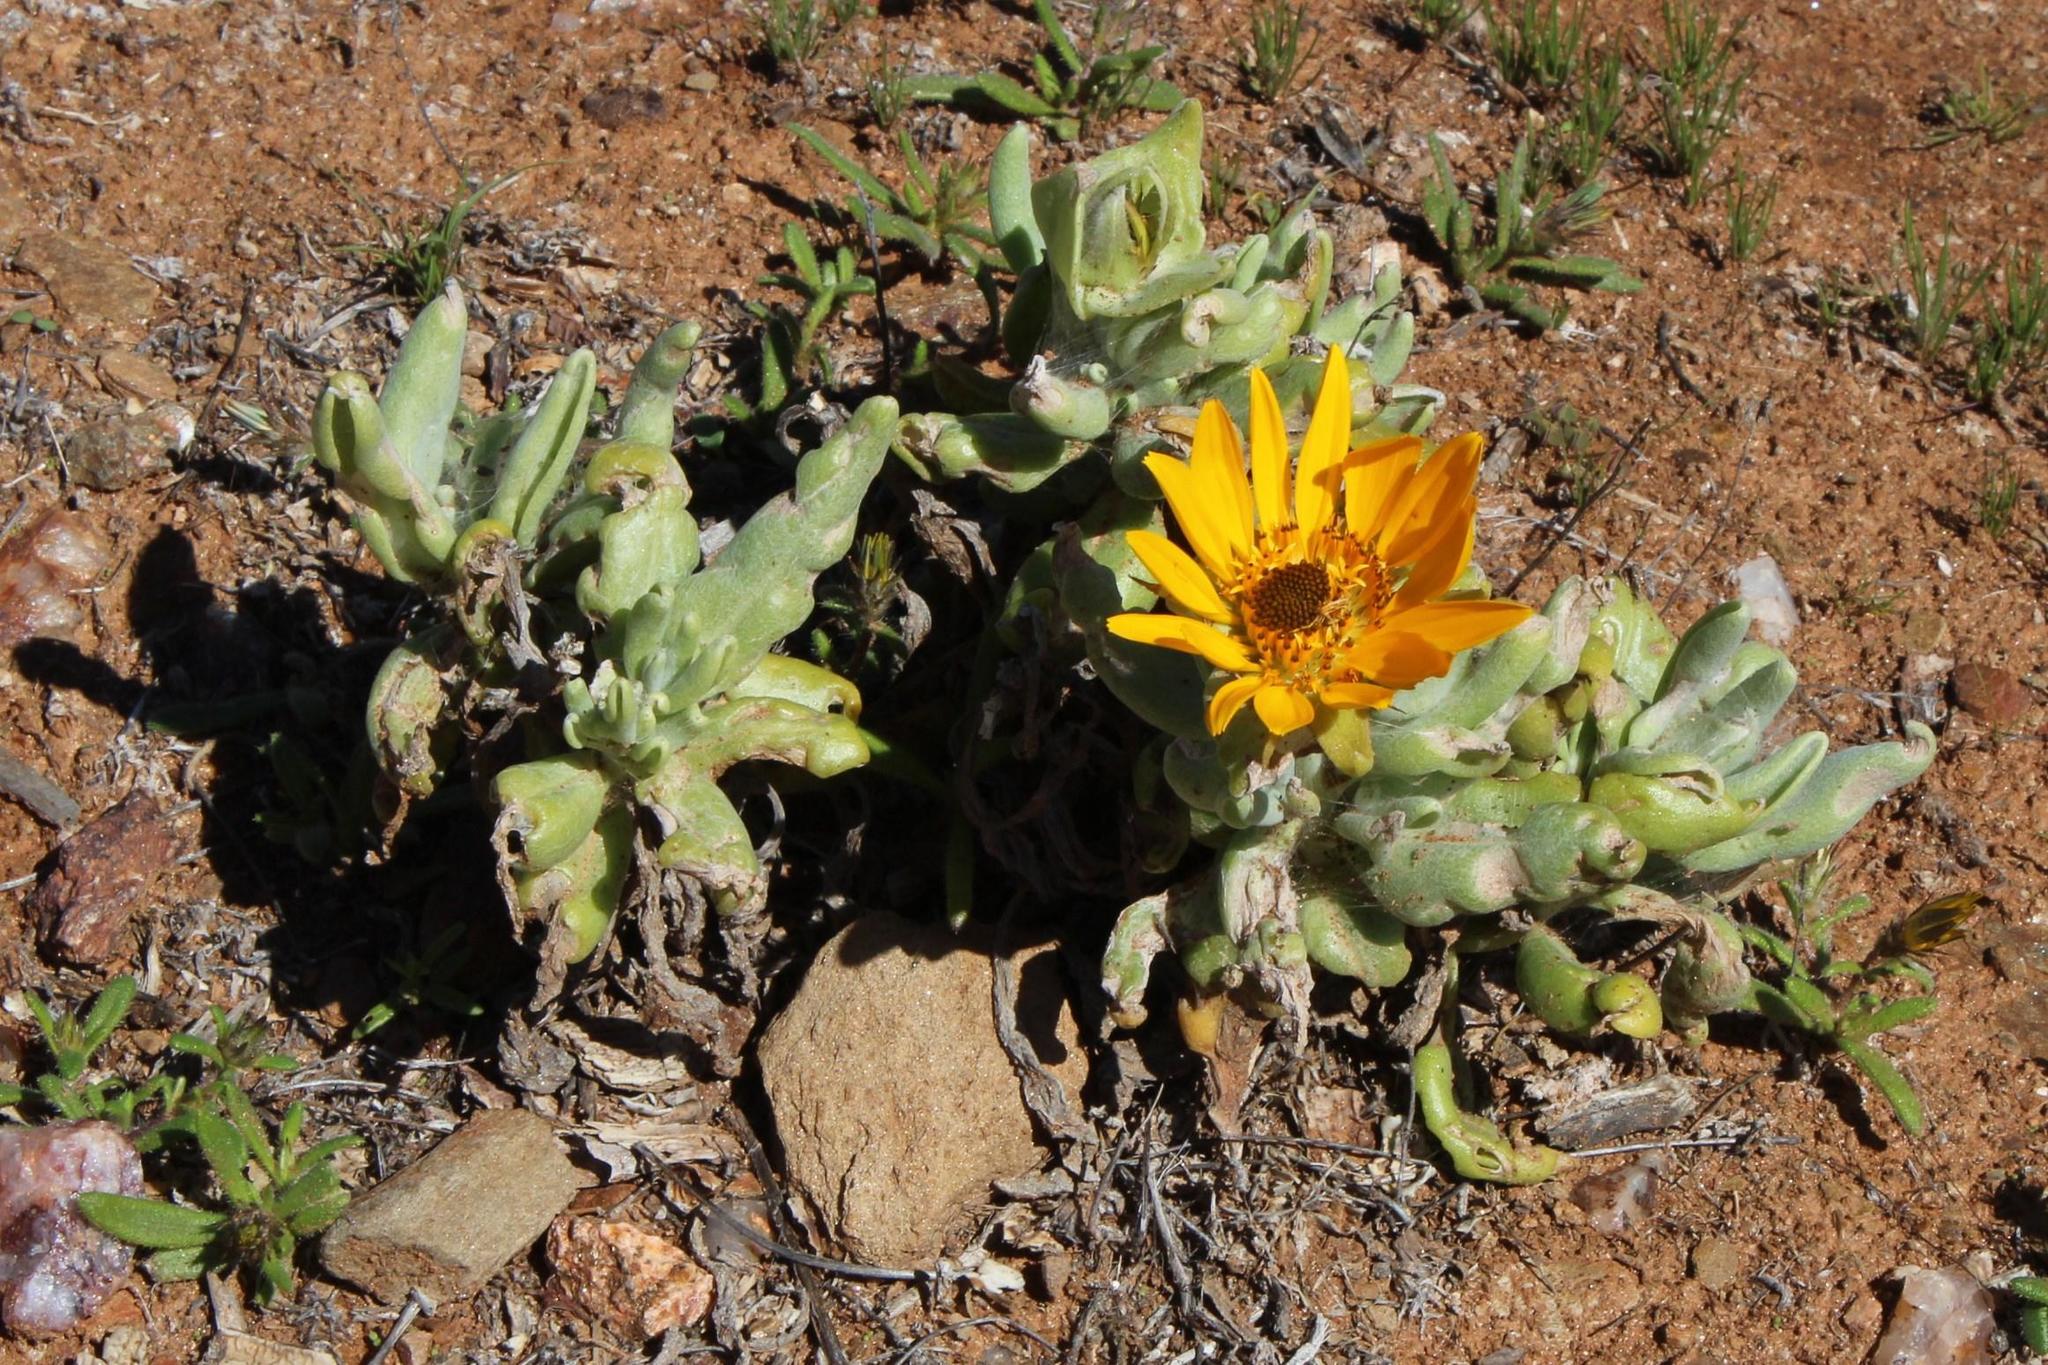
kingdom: Plantae
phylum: Tracheophyta
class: Magnoliopsida
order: Asterales
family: Asteraceae
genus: Didelta
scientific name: Didelta carnosa
